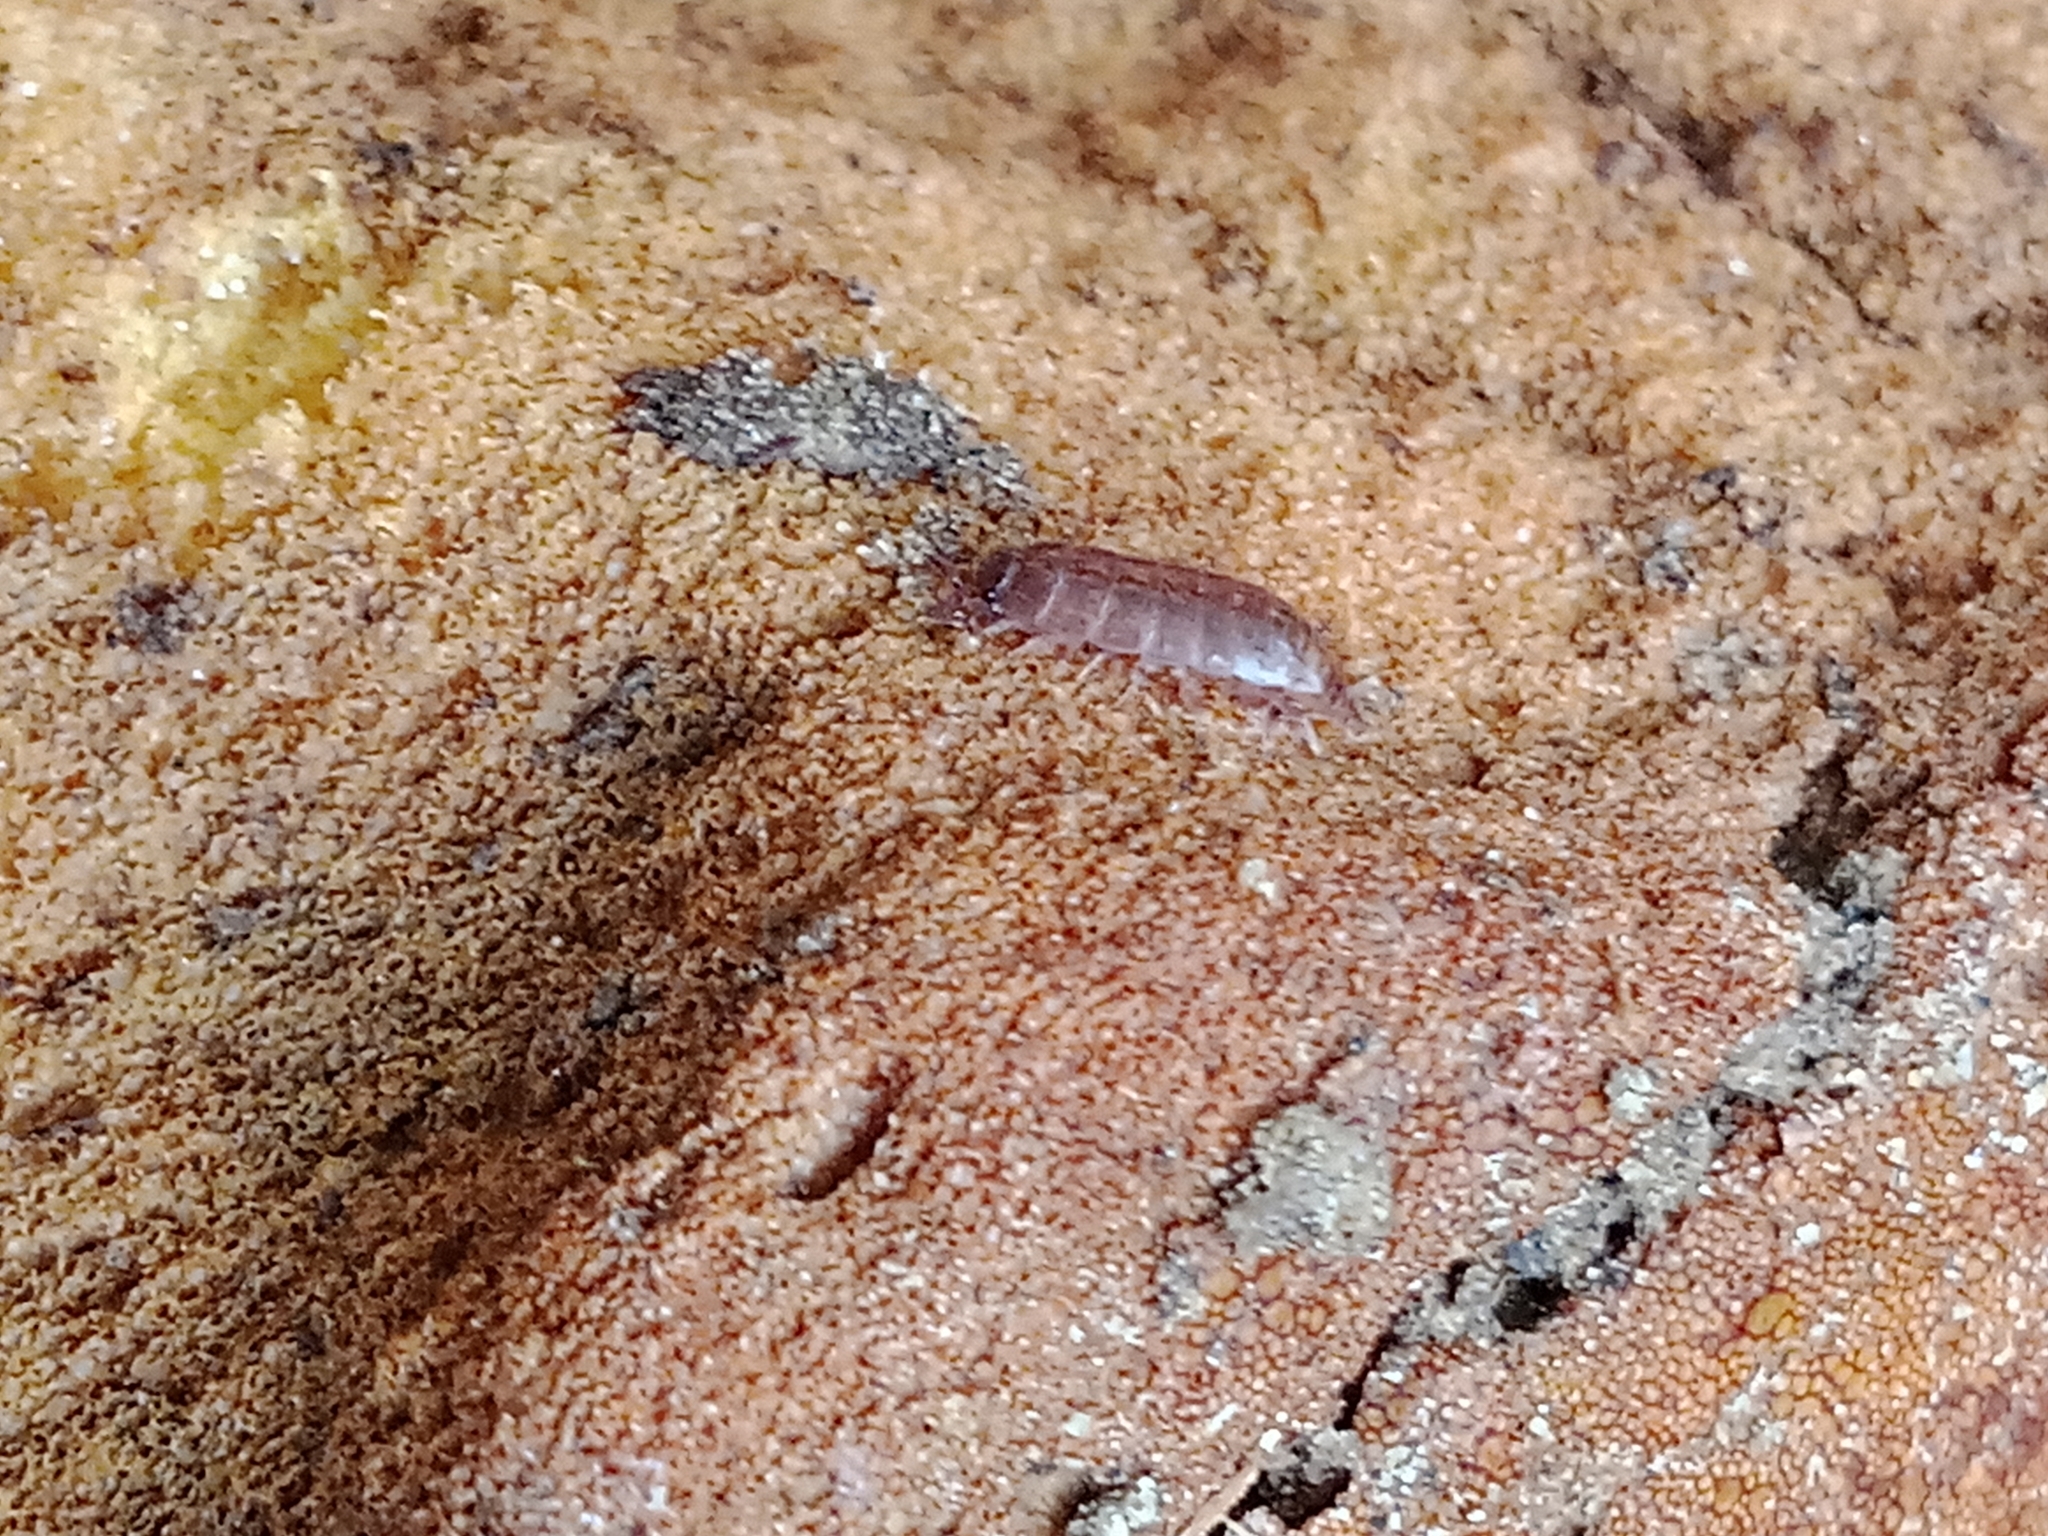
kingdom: Animalia
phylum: Arthropoda
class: Malacostraca
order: Isopoda
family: Trichoniscidae
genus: Hyloniscus
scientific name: Hyloniscus riparius
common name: Isopod
